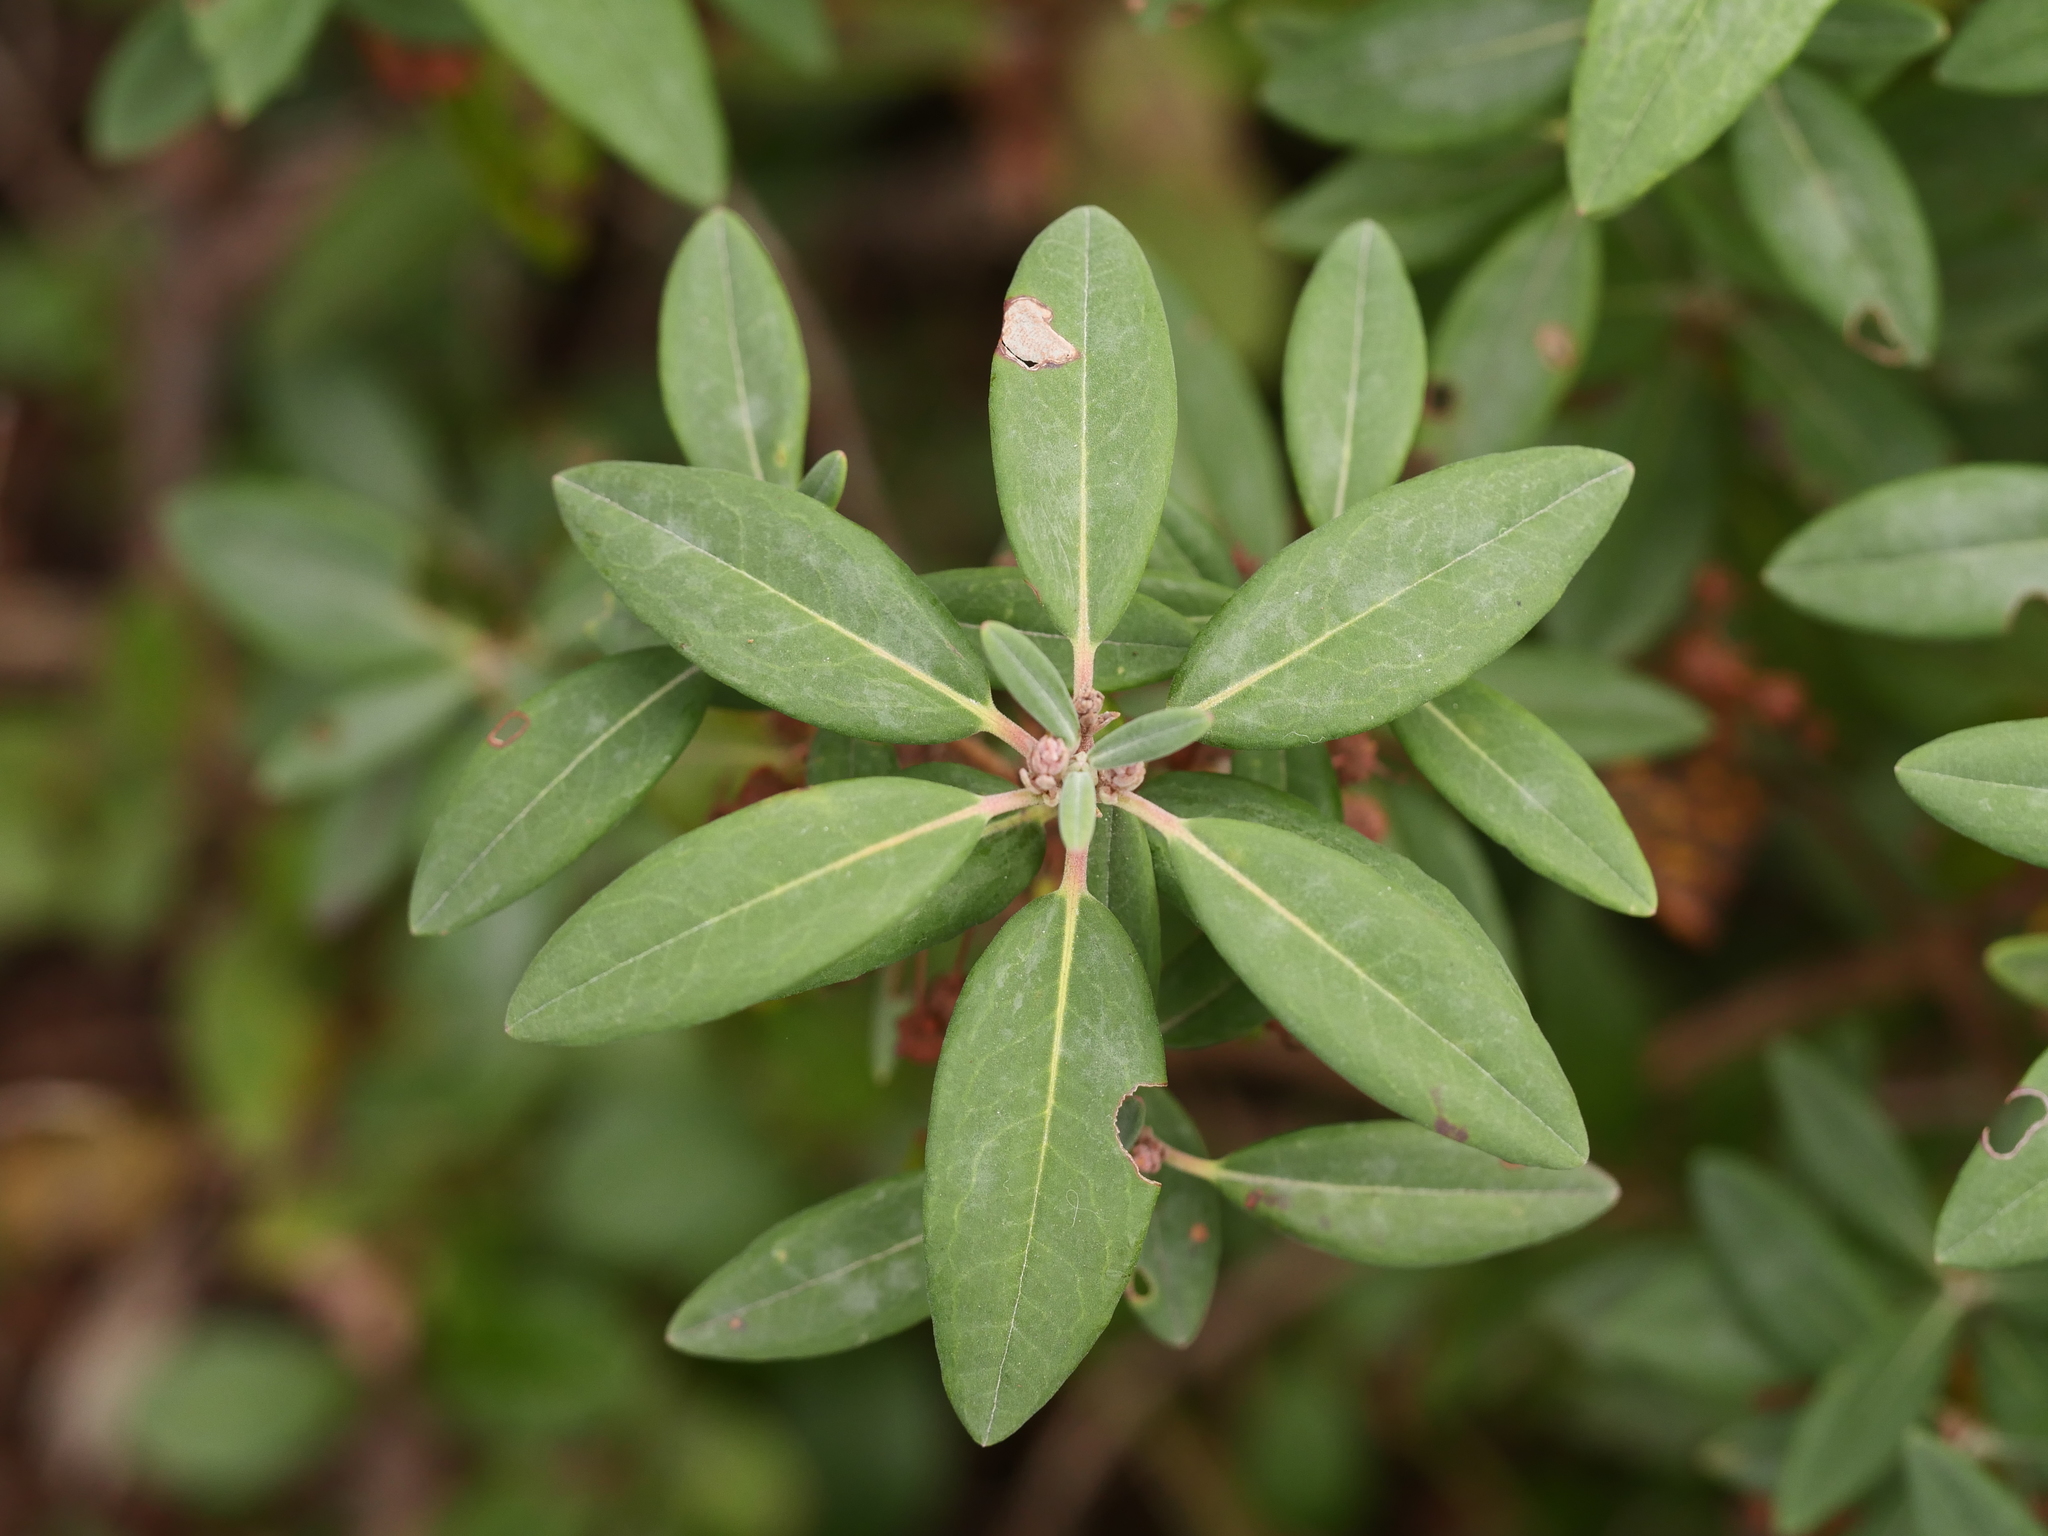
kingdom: Plantae
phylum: Tracheophyta
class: Magnoliopsida
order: Ericales
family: Ericaceae
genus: Kalmia
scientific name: Kalmia angustifolia
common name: Sheep-laurel
